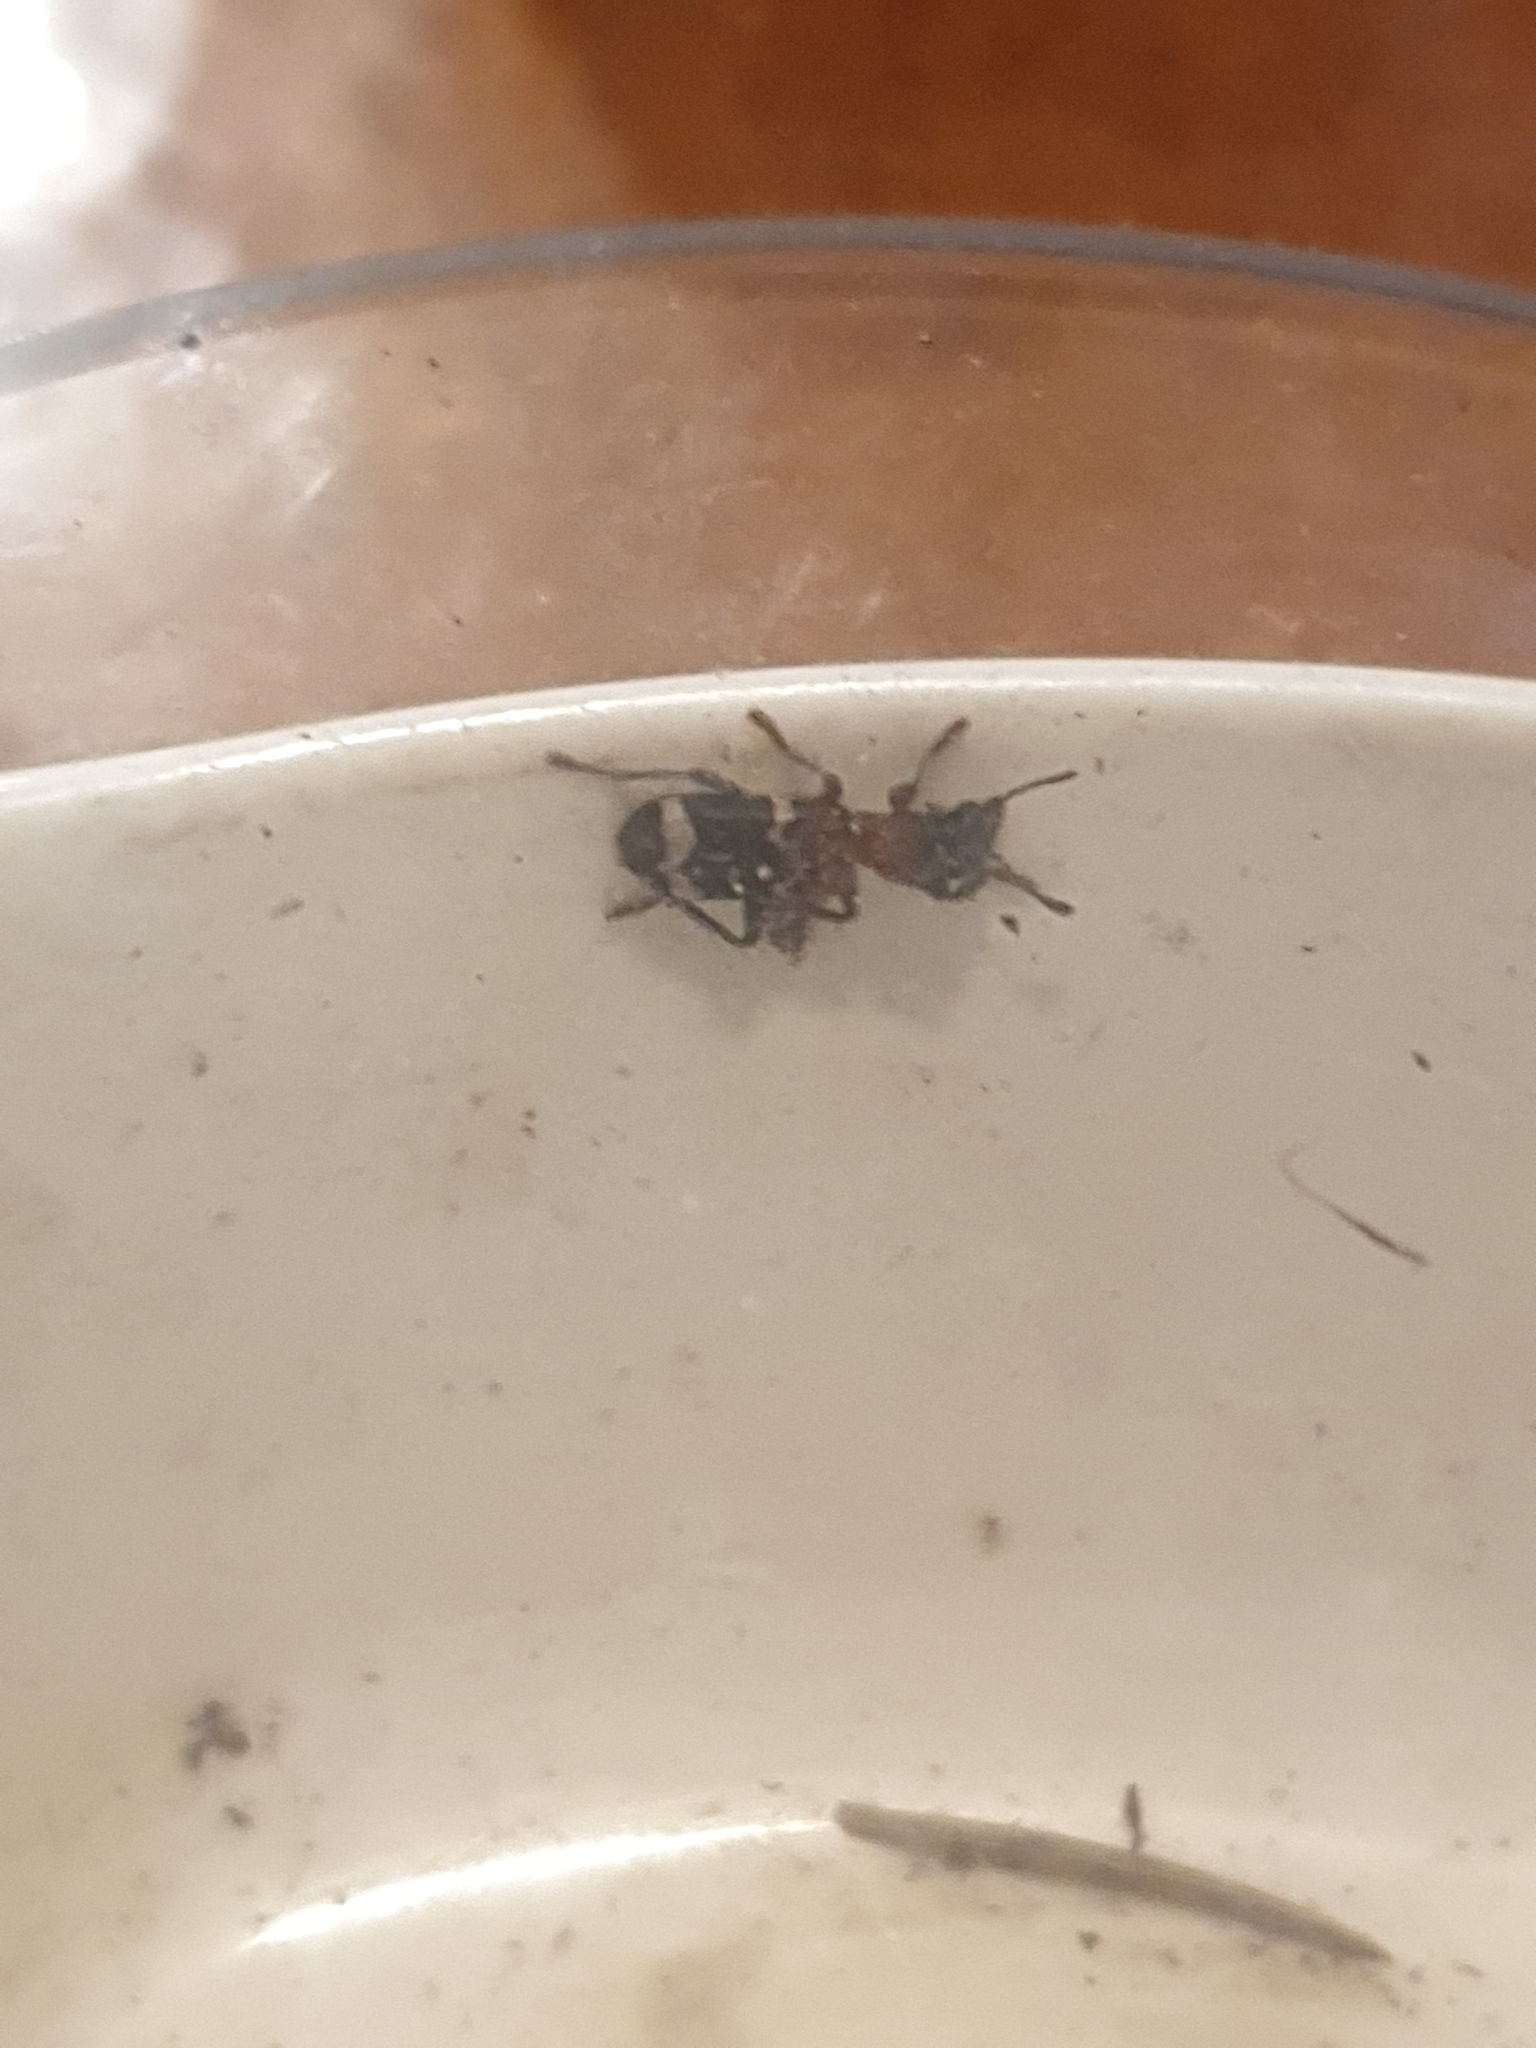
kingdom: Animalia
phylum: Arthropoda
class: Insecta
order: Coleoptera
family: Cleridae
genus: Thanasimus
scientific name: Thanasimus formicarius
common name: Ant beetle
